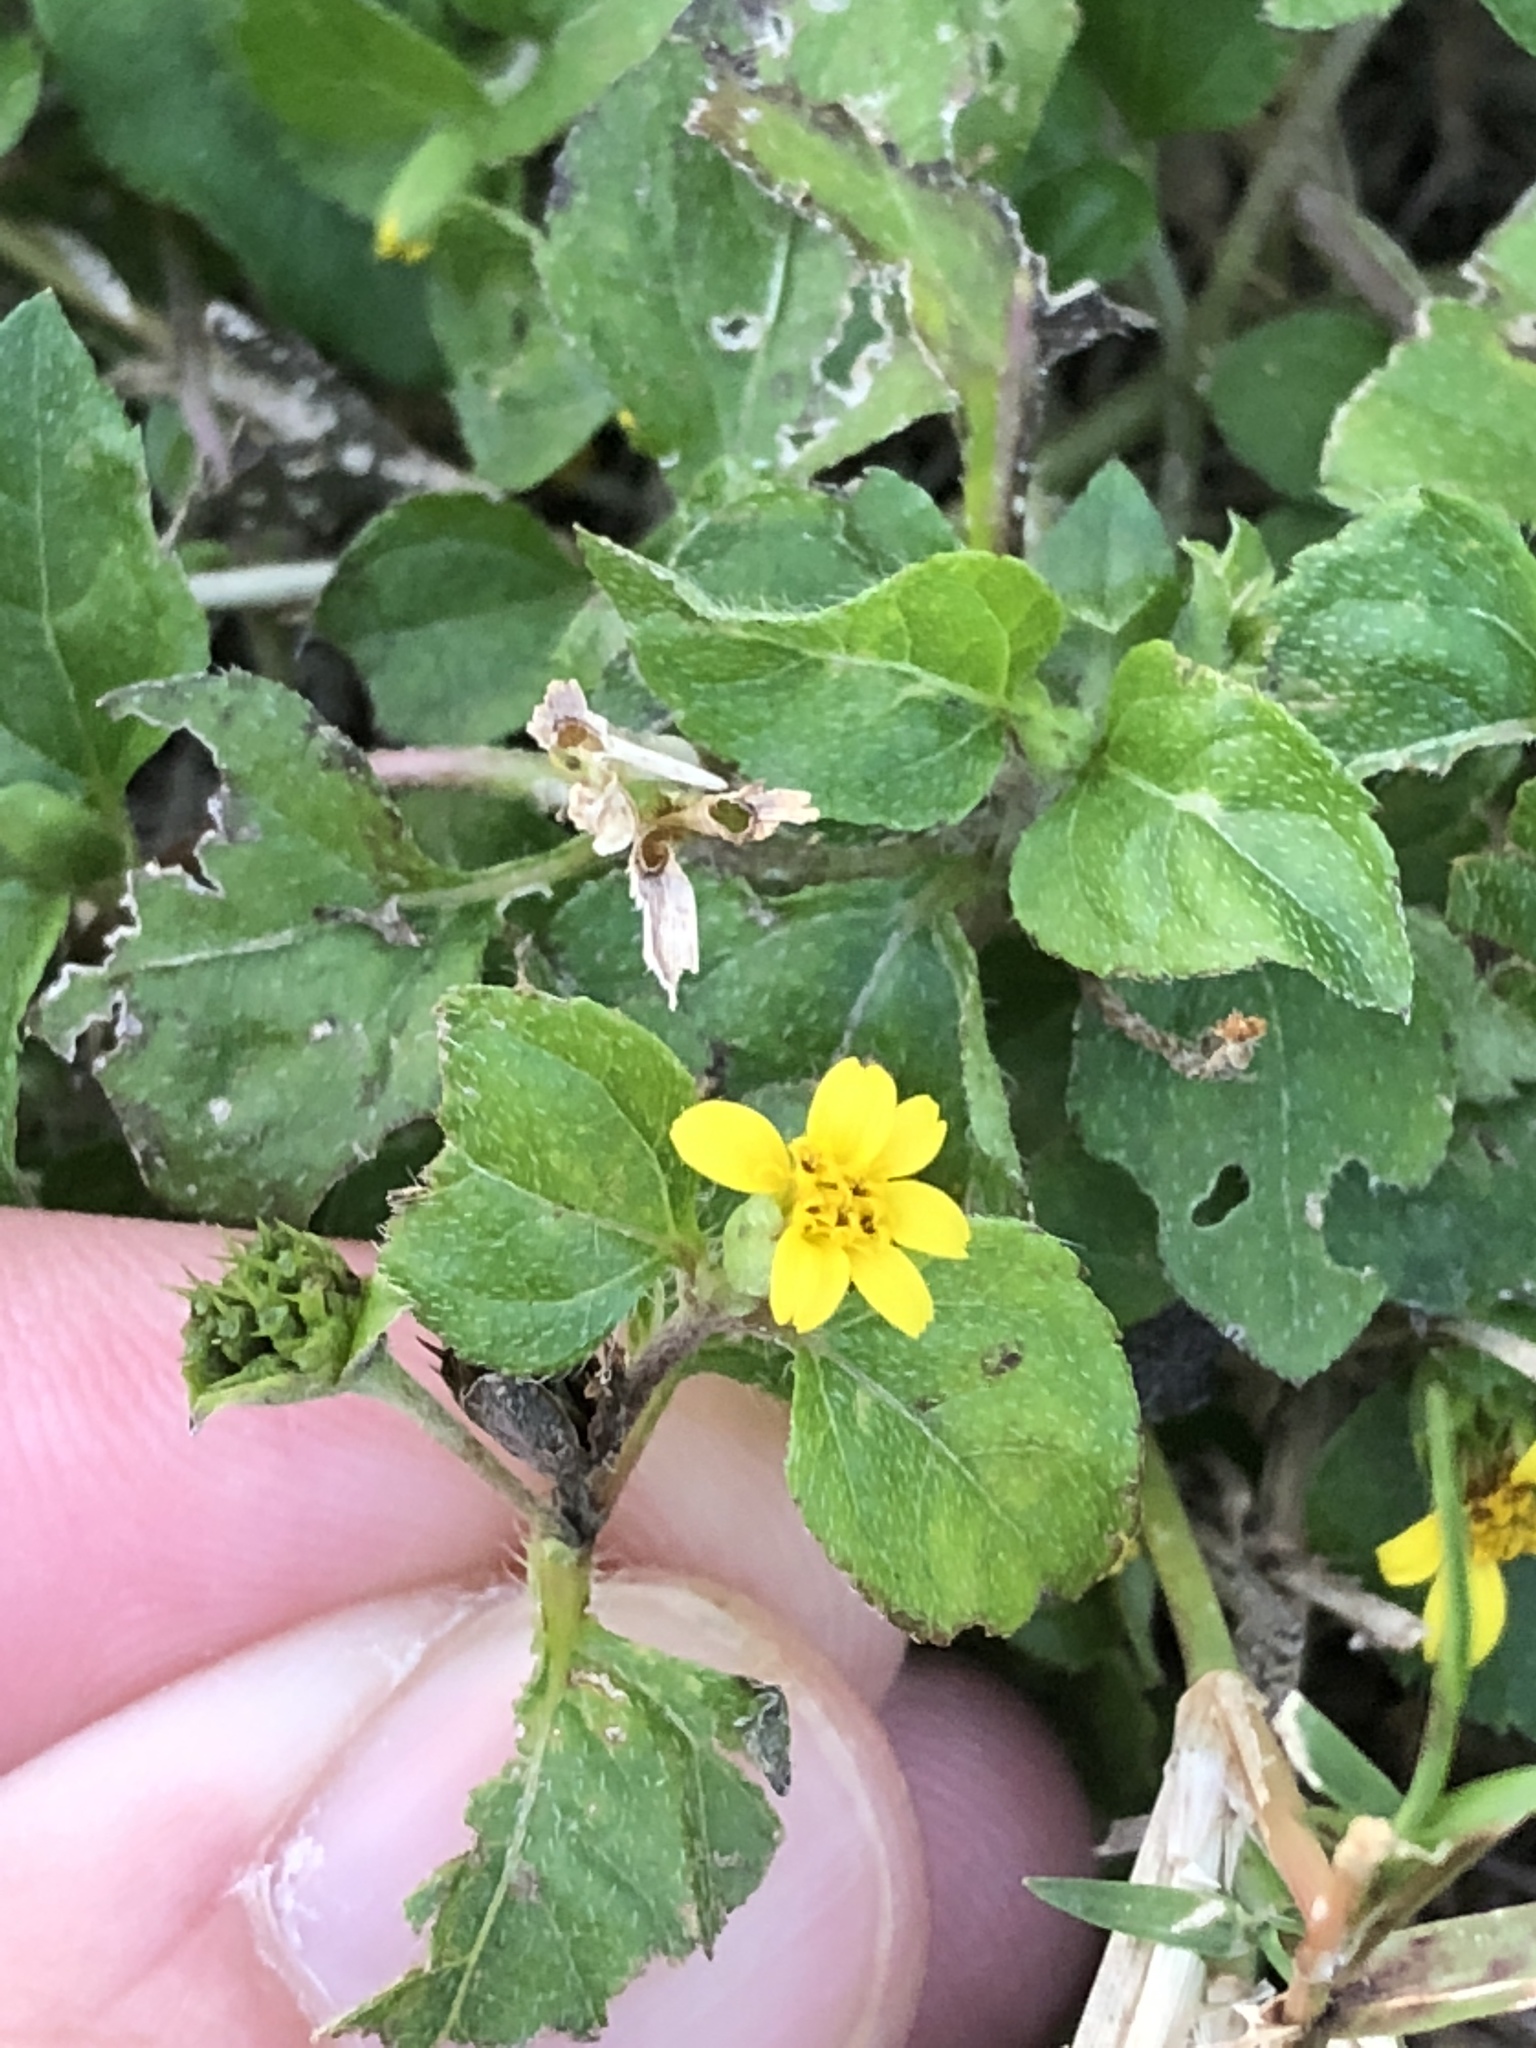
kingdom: Plantae
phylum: Tracheophyta
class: Magnoliopsida
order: Asterales
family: Asteraceae
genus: Calyptocarpus
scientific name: Calyptocarpus vialis
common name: Straggler daisy
